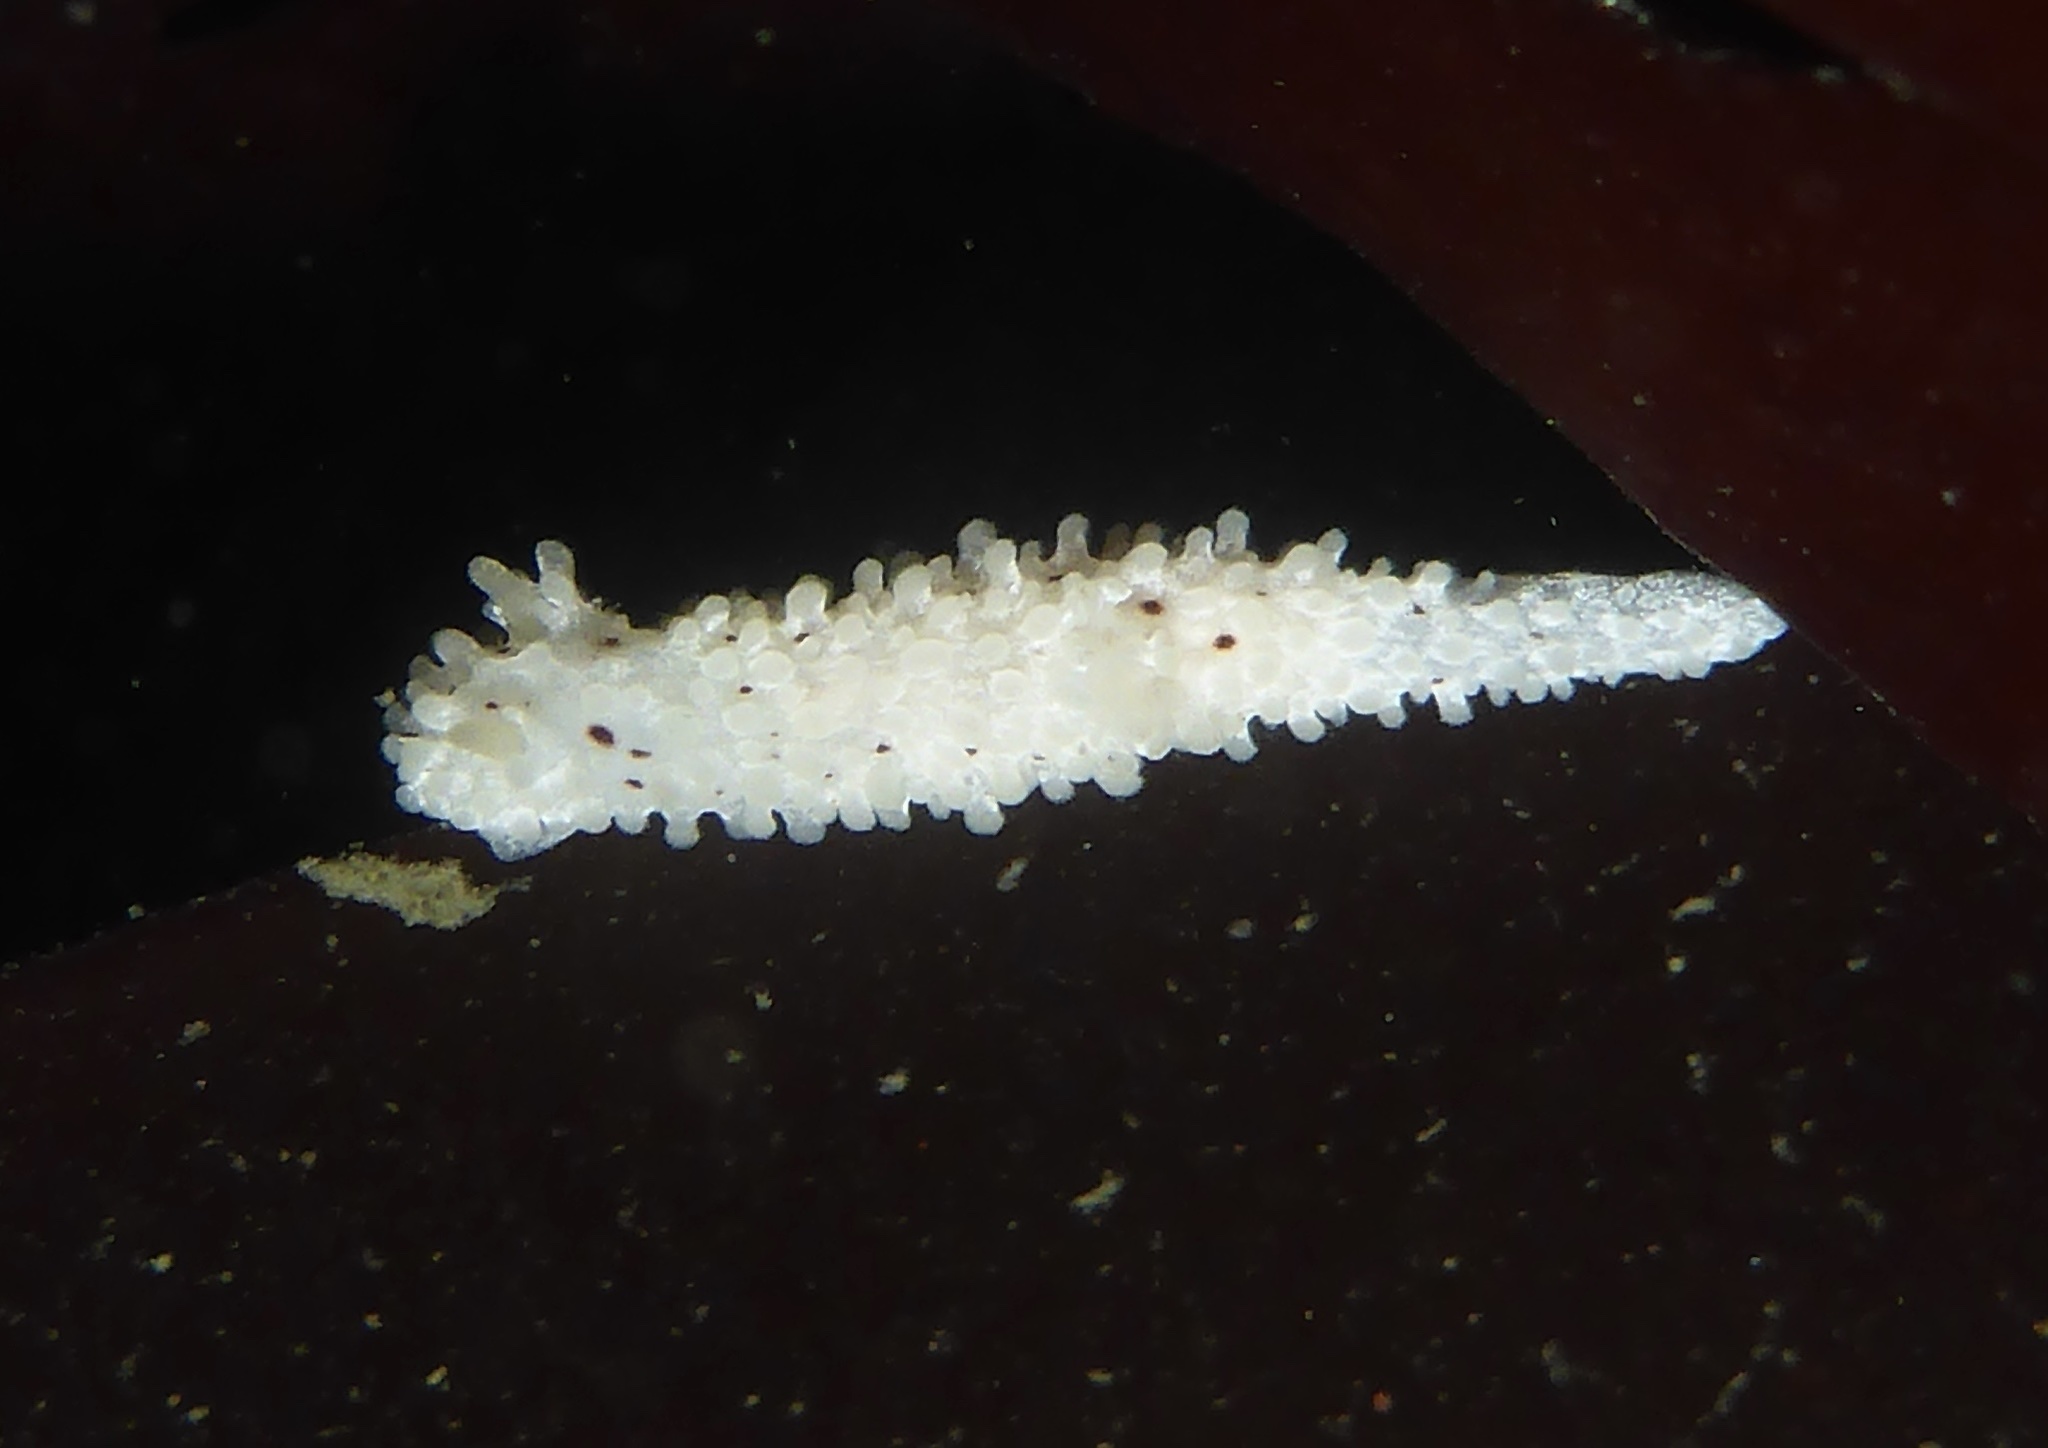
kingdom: Animalia
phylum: Mollusca
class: Gastropoda
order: Nudibranchia
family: Aegiridae
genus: Aegires
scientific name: Aegires albopunctatus
